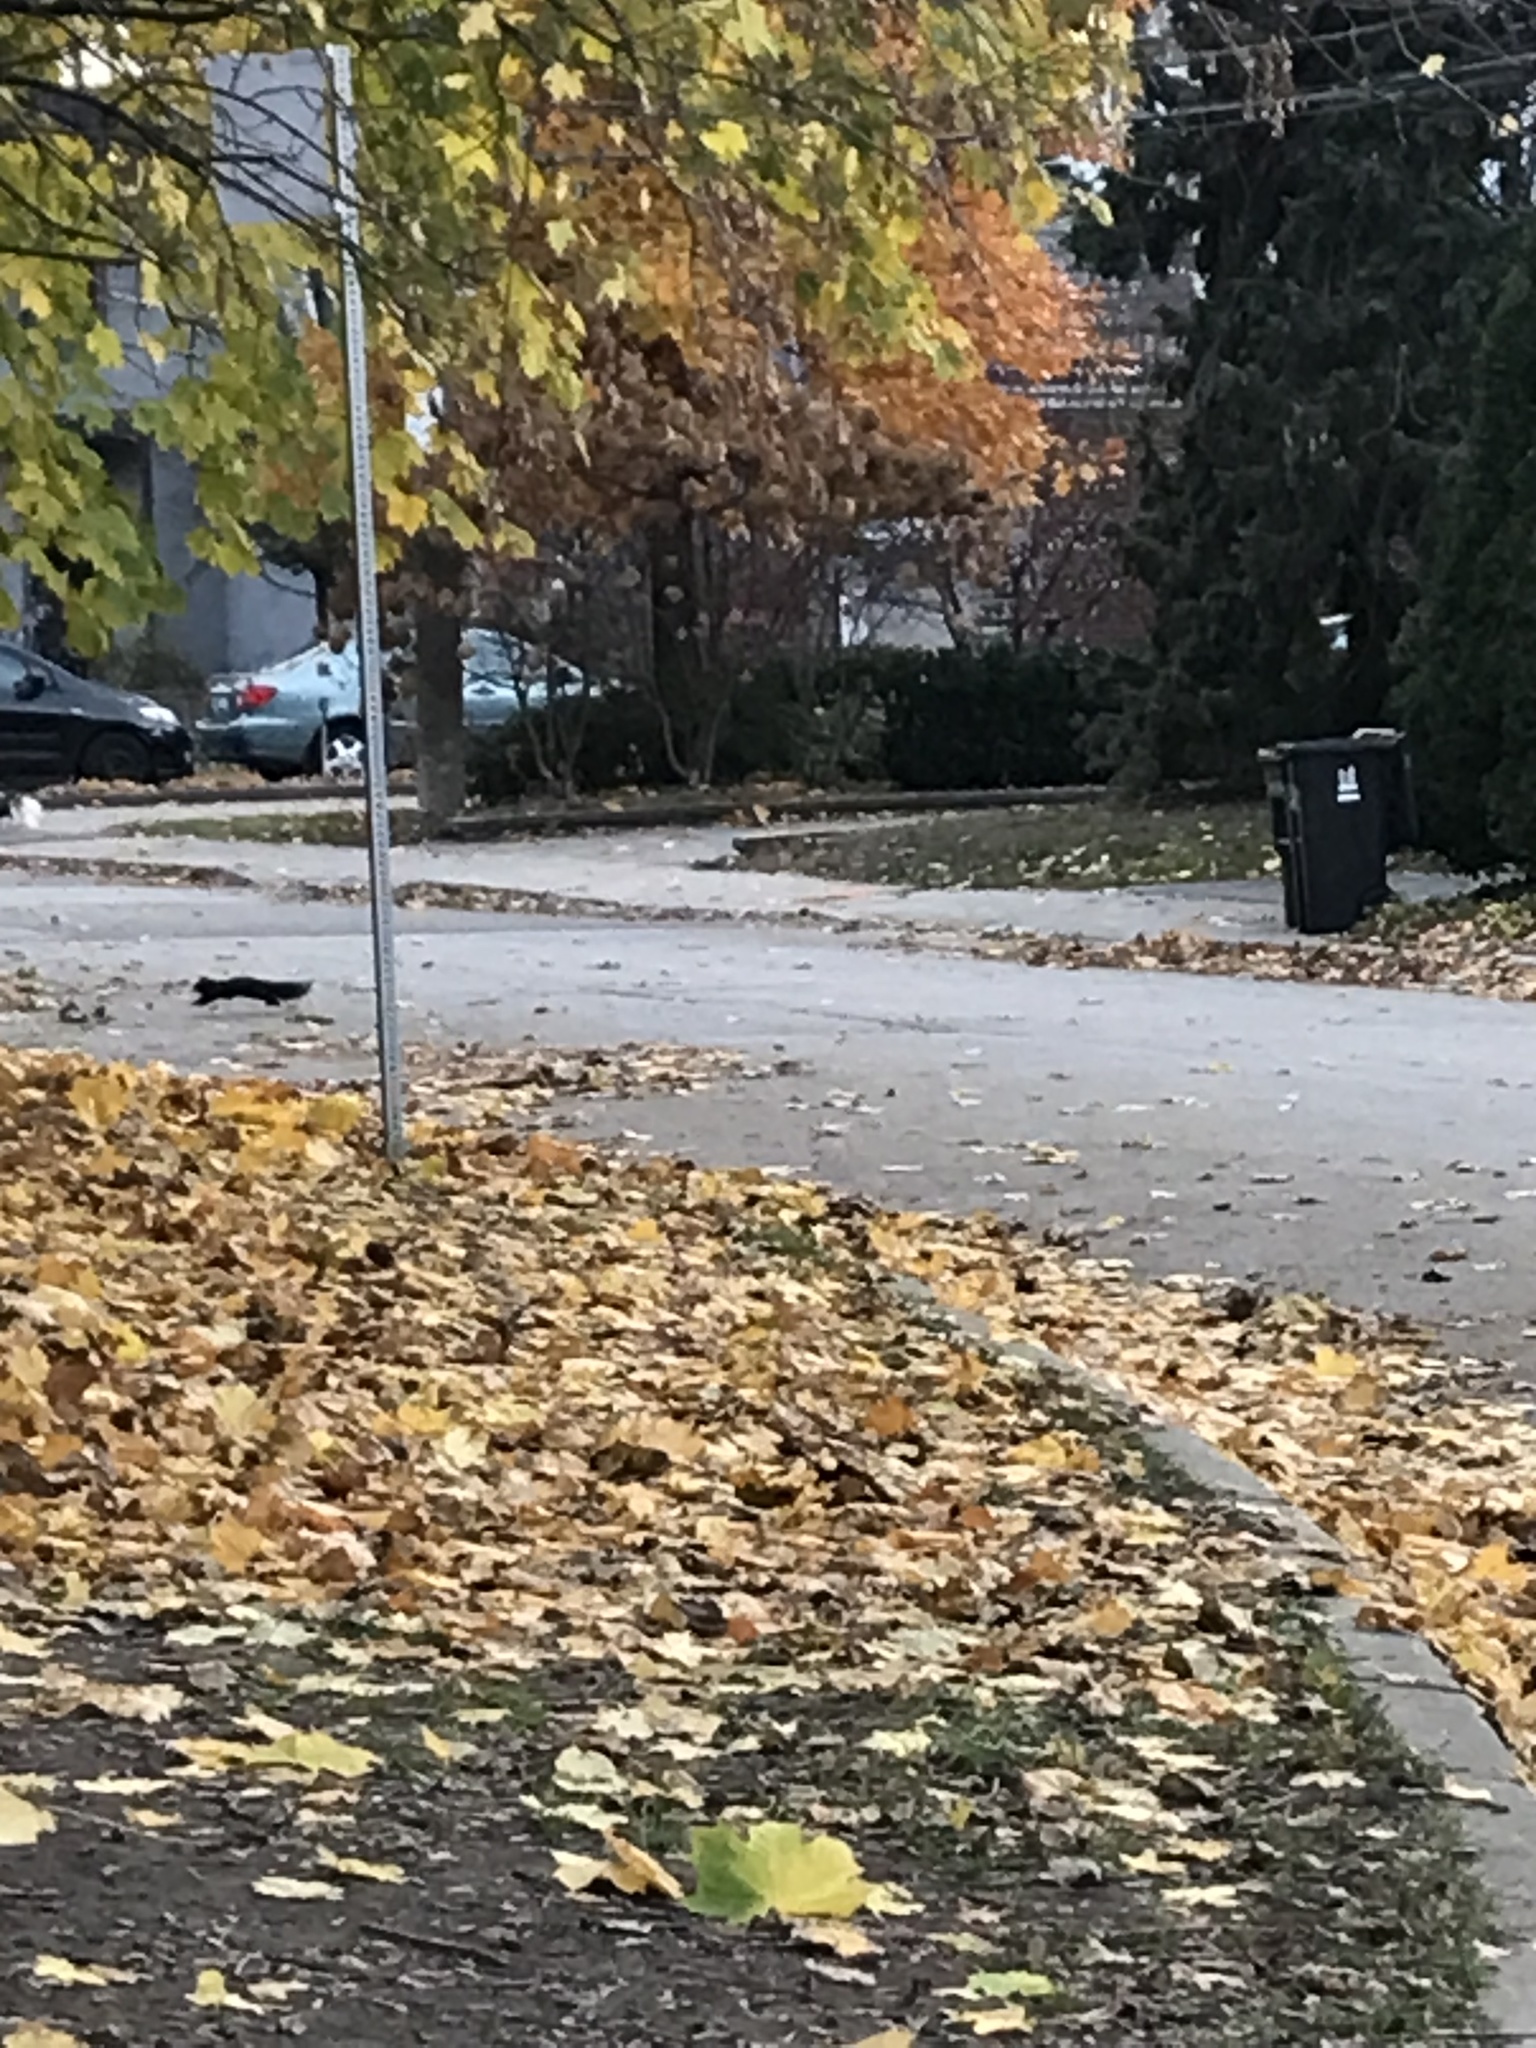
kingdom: Animalia
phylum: Chordata
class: Mammalia
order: Rodentia
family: Sciuridae
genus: Sciurus
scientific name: Sciurus carolinensis
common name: Eastern gray squirrel
